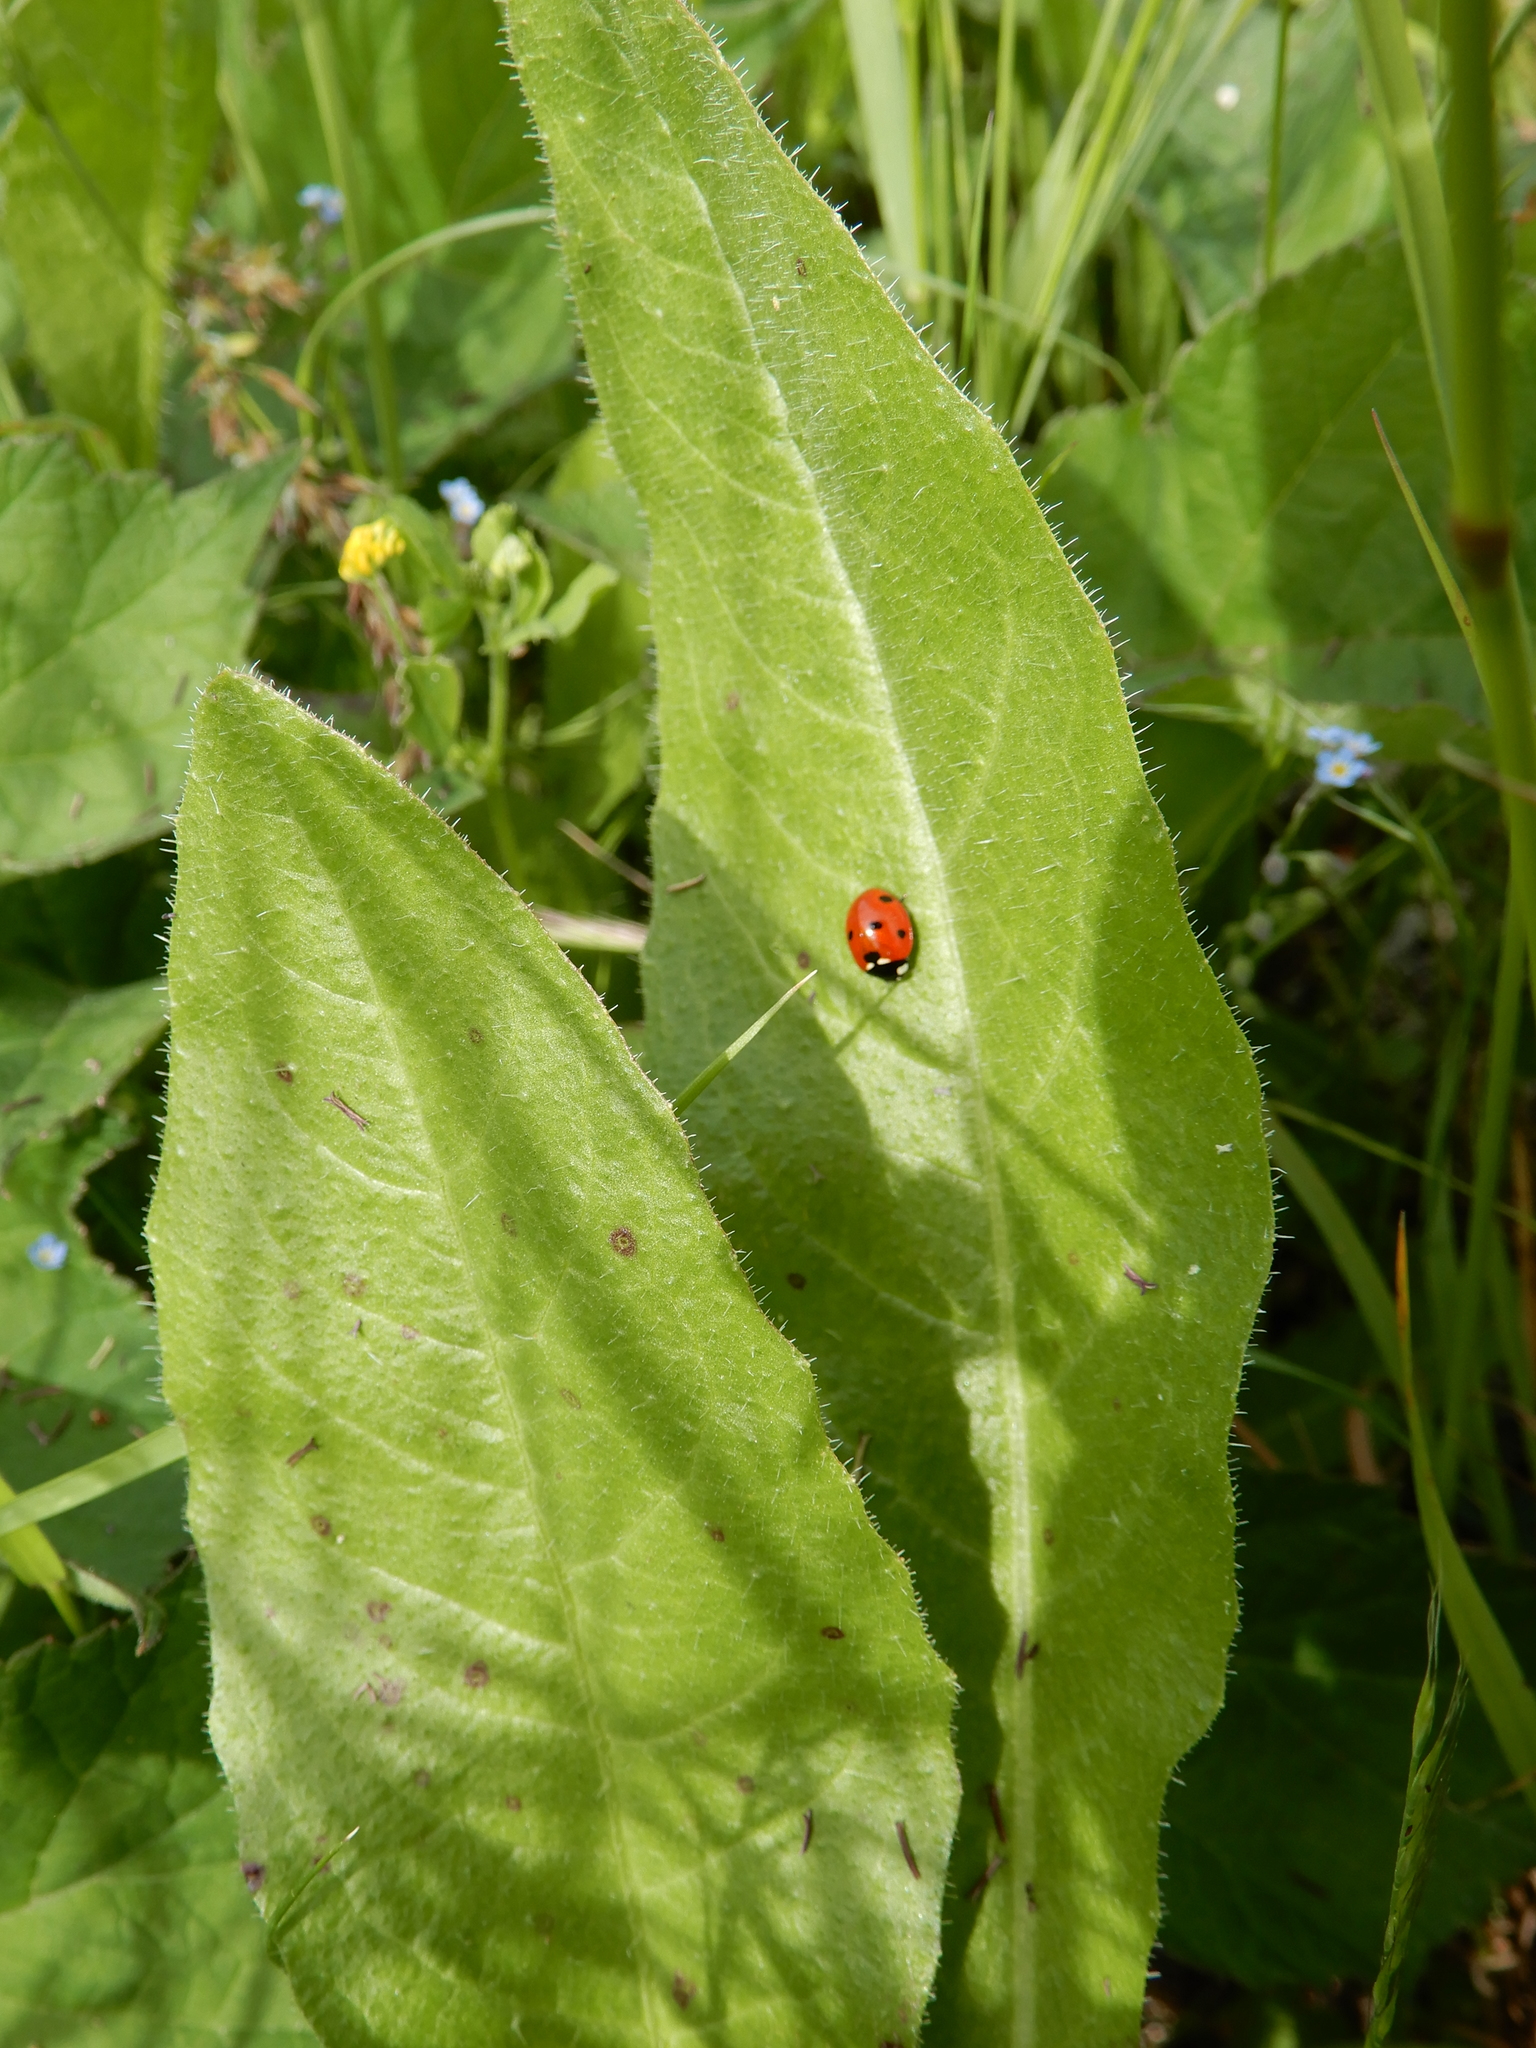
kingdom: Animalia
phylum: Arthropoda
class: Insecta
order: Coleoptera
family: Coccinellidae
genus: Coccinella
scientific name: Coccinella septempunctata
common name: Sevenspotted lady beetle
